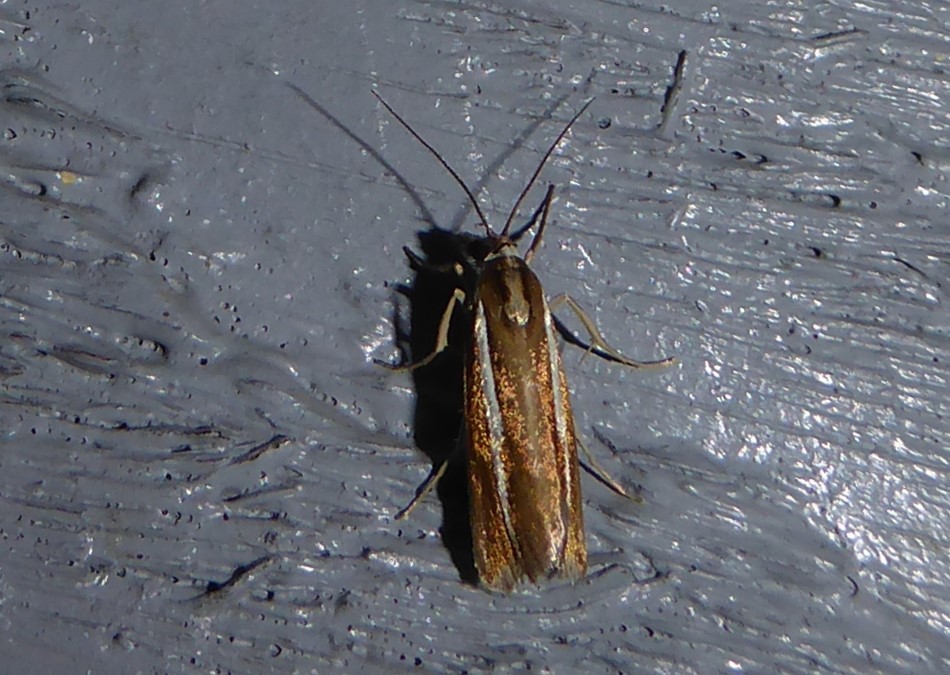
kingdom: Animalia
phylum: Arthropoda
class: Insecta
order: Lepidoptera
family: Crambidae
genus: Orocrambus
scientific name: Orocrambus aethonellus
